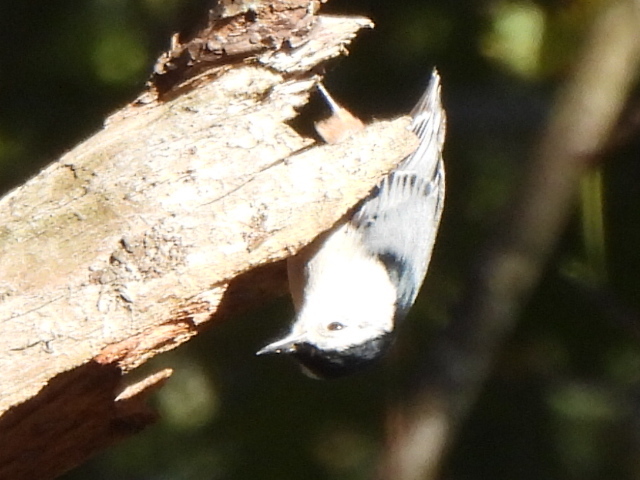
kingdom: Animalia
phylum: Chordata
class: Aves
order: Passeriformes
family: Sittidae
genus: Sitta
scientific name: Sitta carolinensis
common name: White-breasted nuthatch
